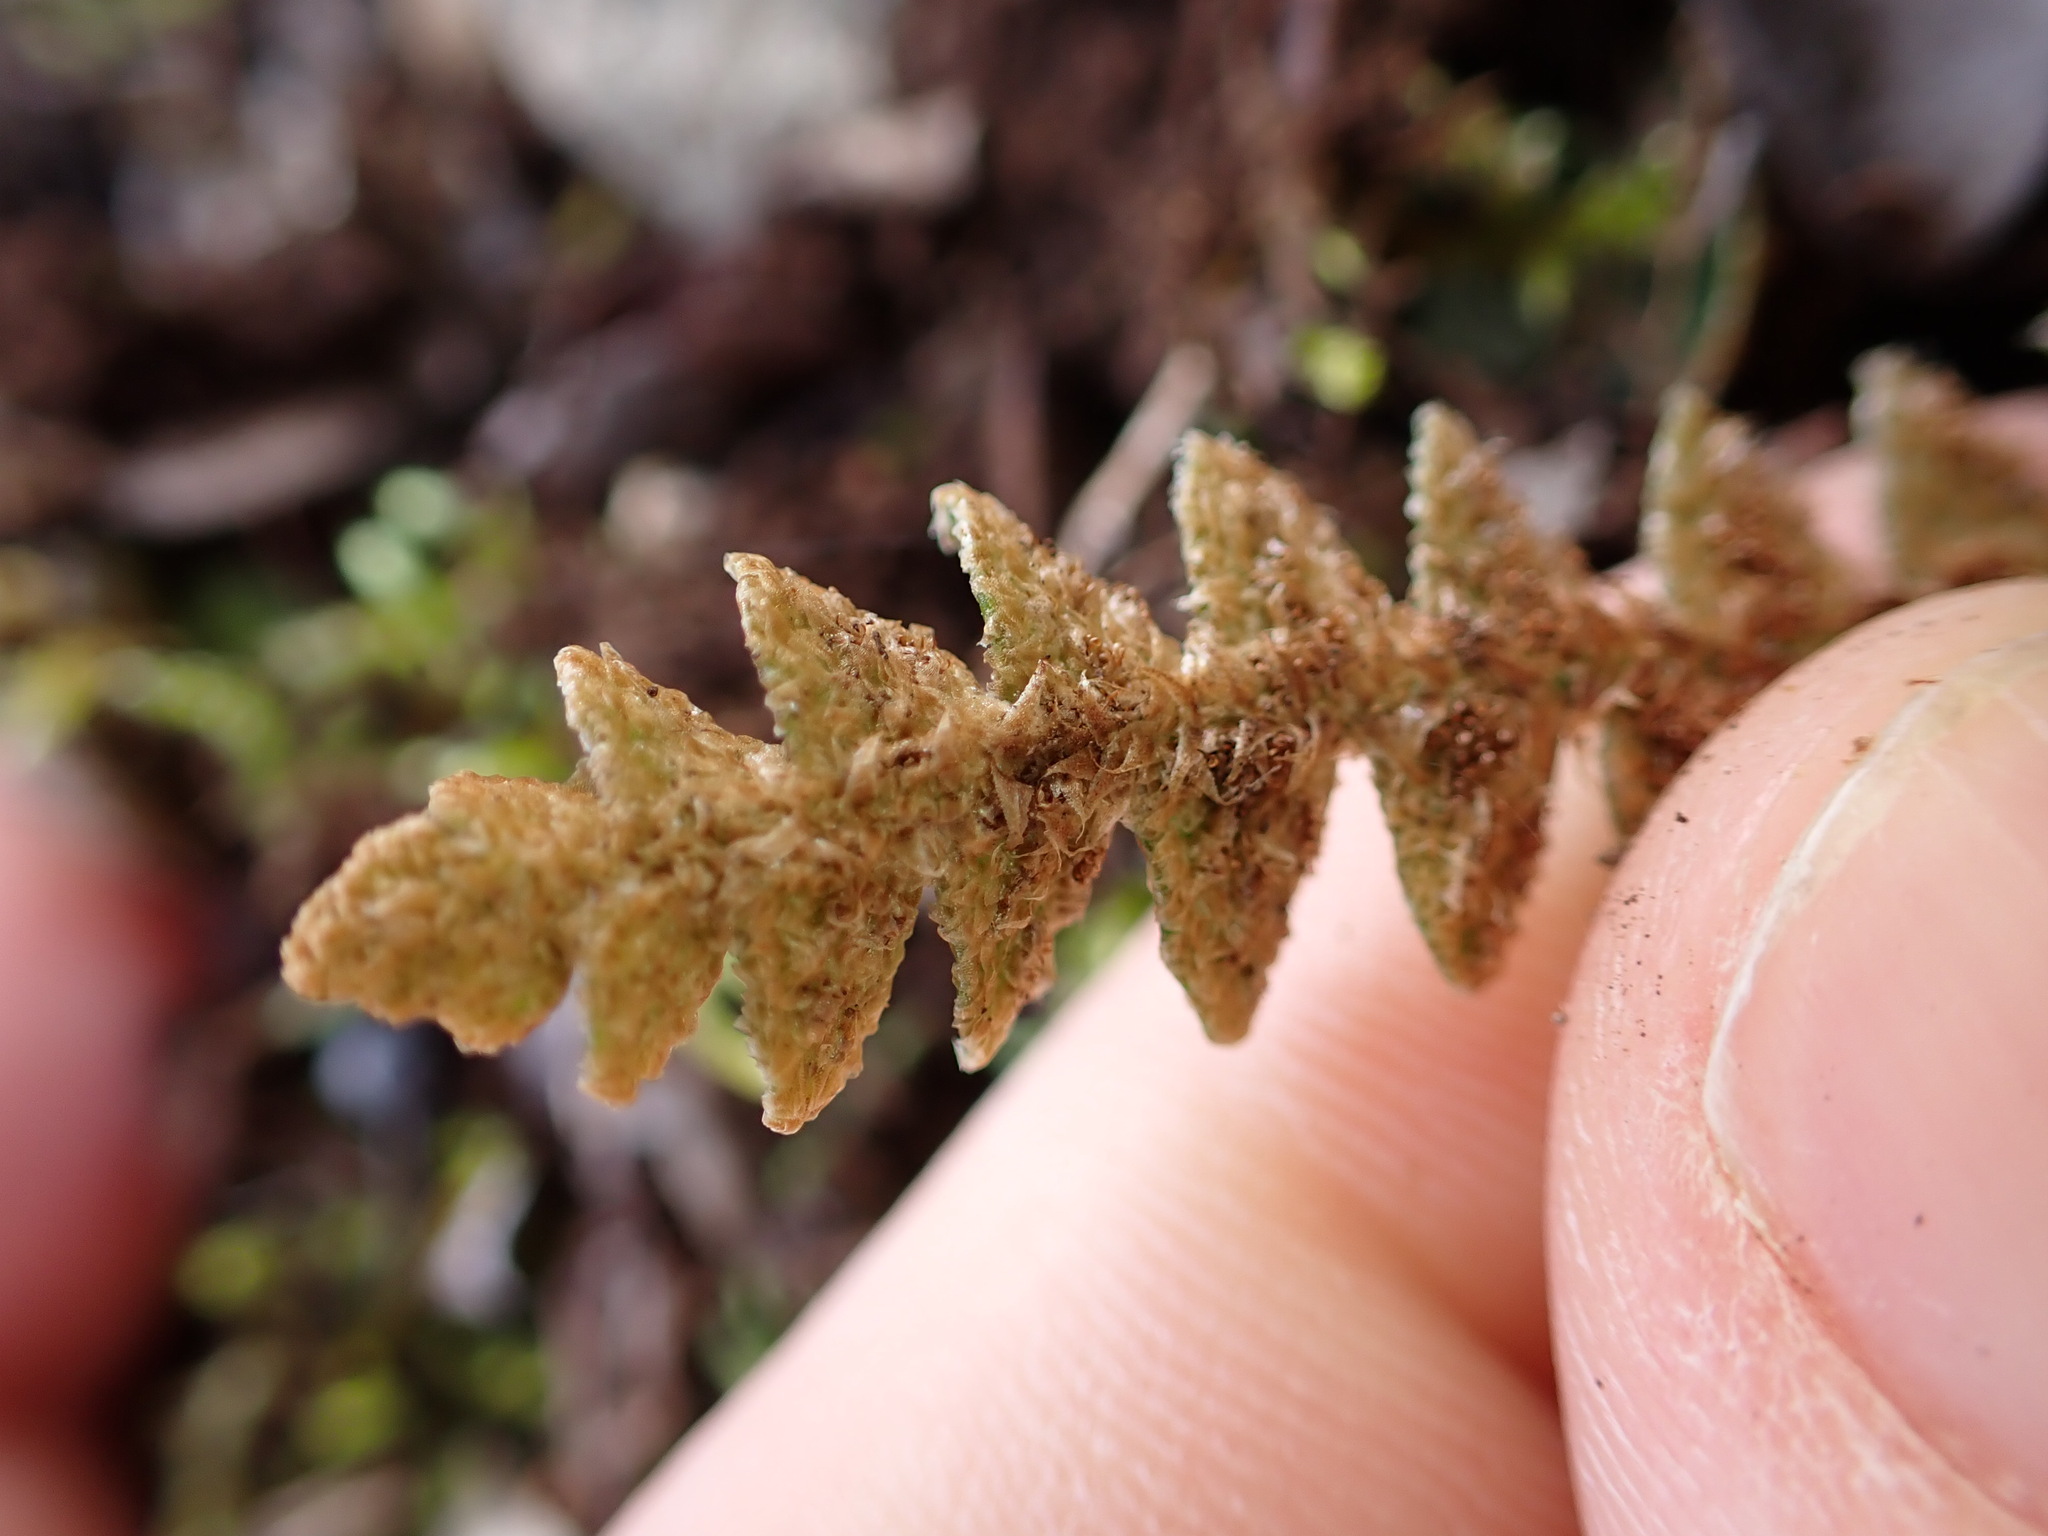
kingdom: Plantae
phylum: Tracheophyta
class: Polypodiopsida
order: Polypodiales
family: Aspleniaceae
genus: Asplenium
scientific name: Asplenium ceterach
